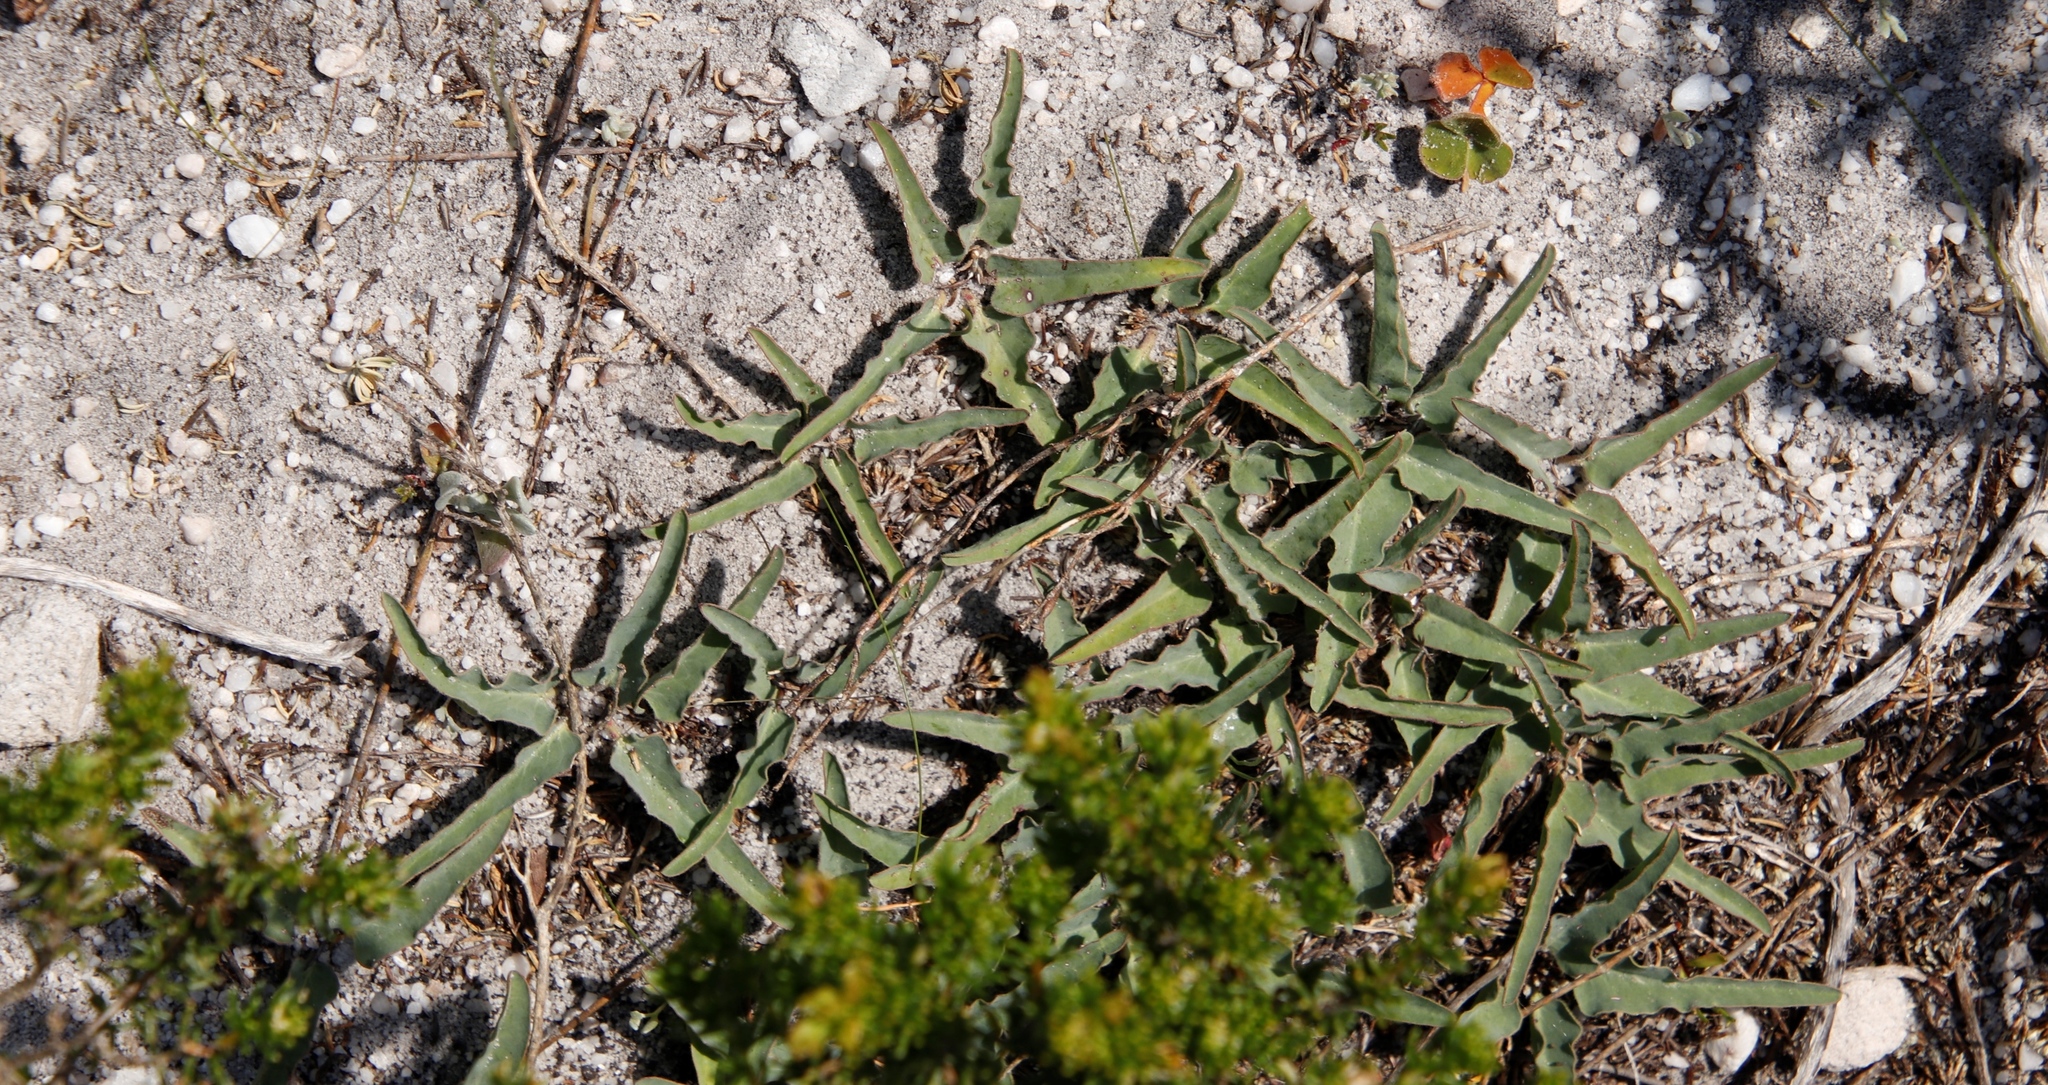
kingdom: Plantae
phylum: Tracheophyta
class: Magnoliopsida
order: Malpighiales
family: Euphorbiaceae
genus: Euphorbia
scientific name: Euphorbia tuberosa
